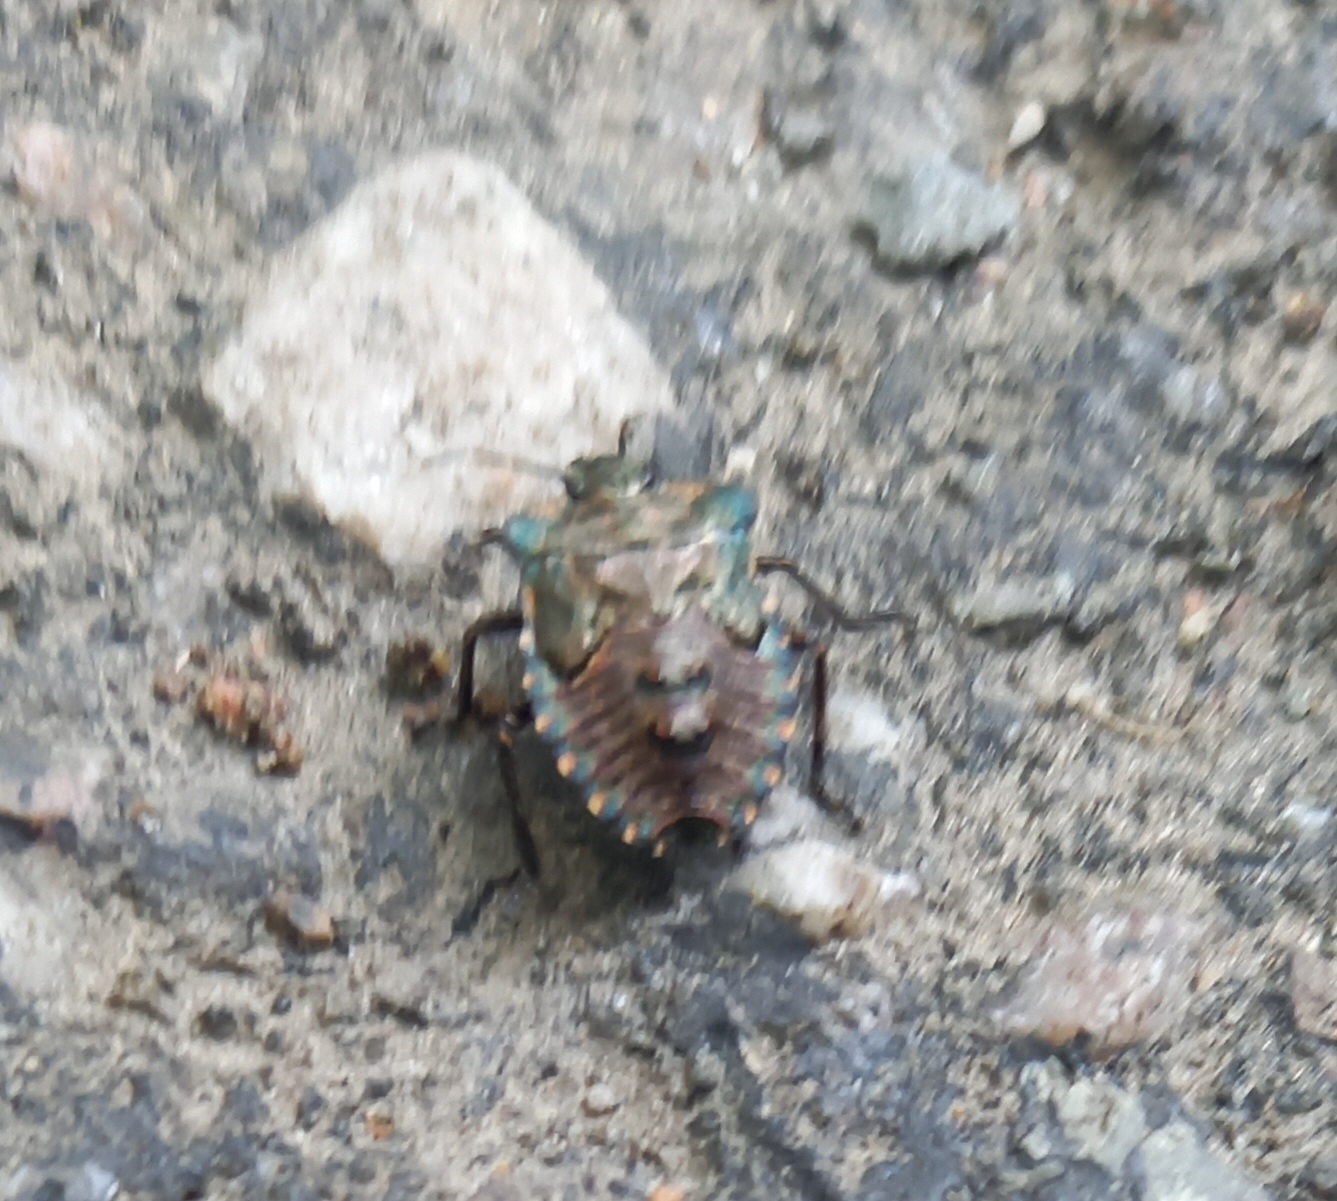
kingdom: Animalia
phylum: Arthropoda
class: Insecta
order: Hemiptera
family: Pentatomidae
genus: Pentatoma
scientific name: Pentatoma rufipes
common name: Forest bug
